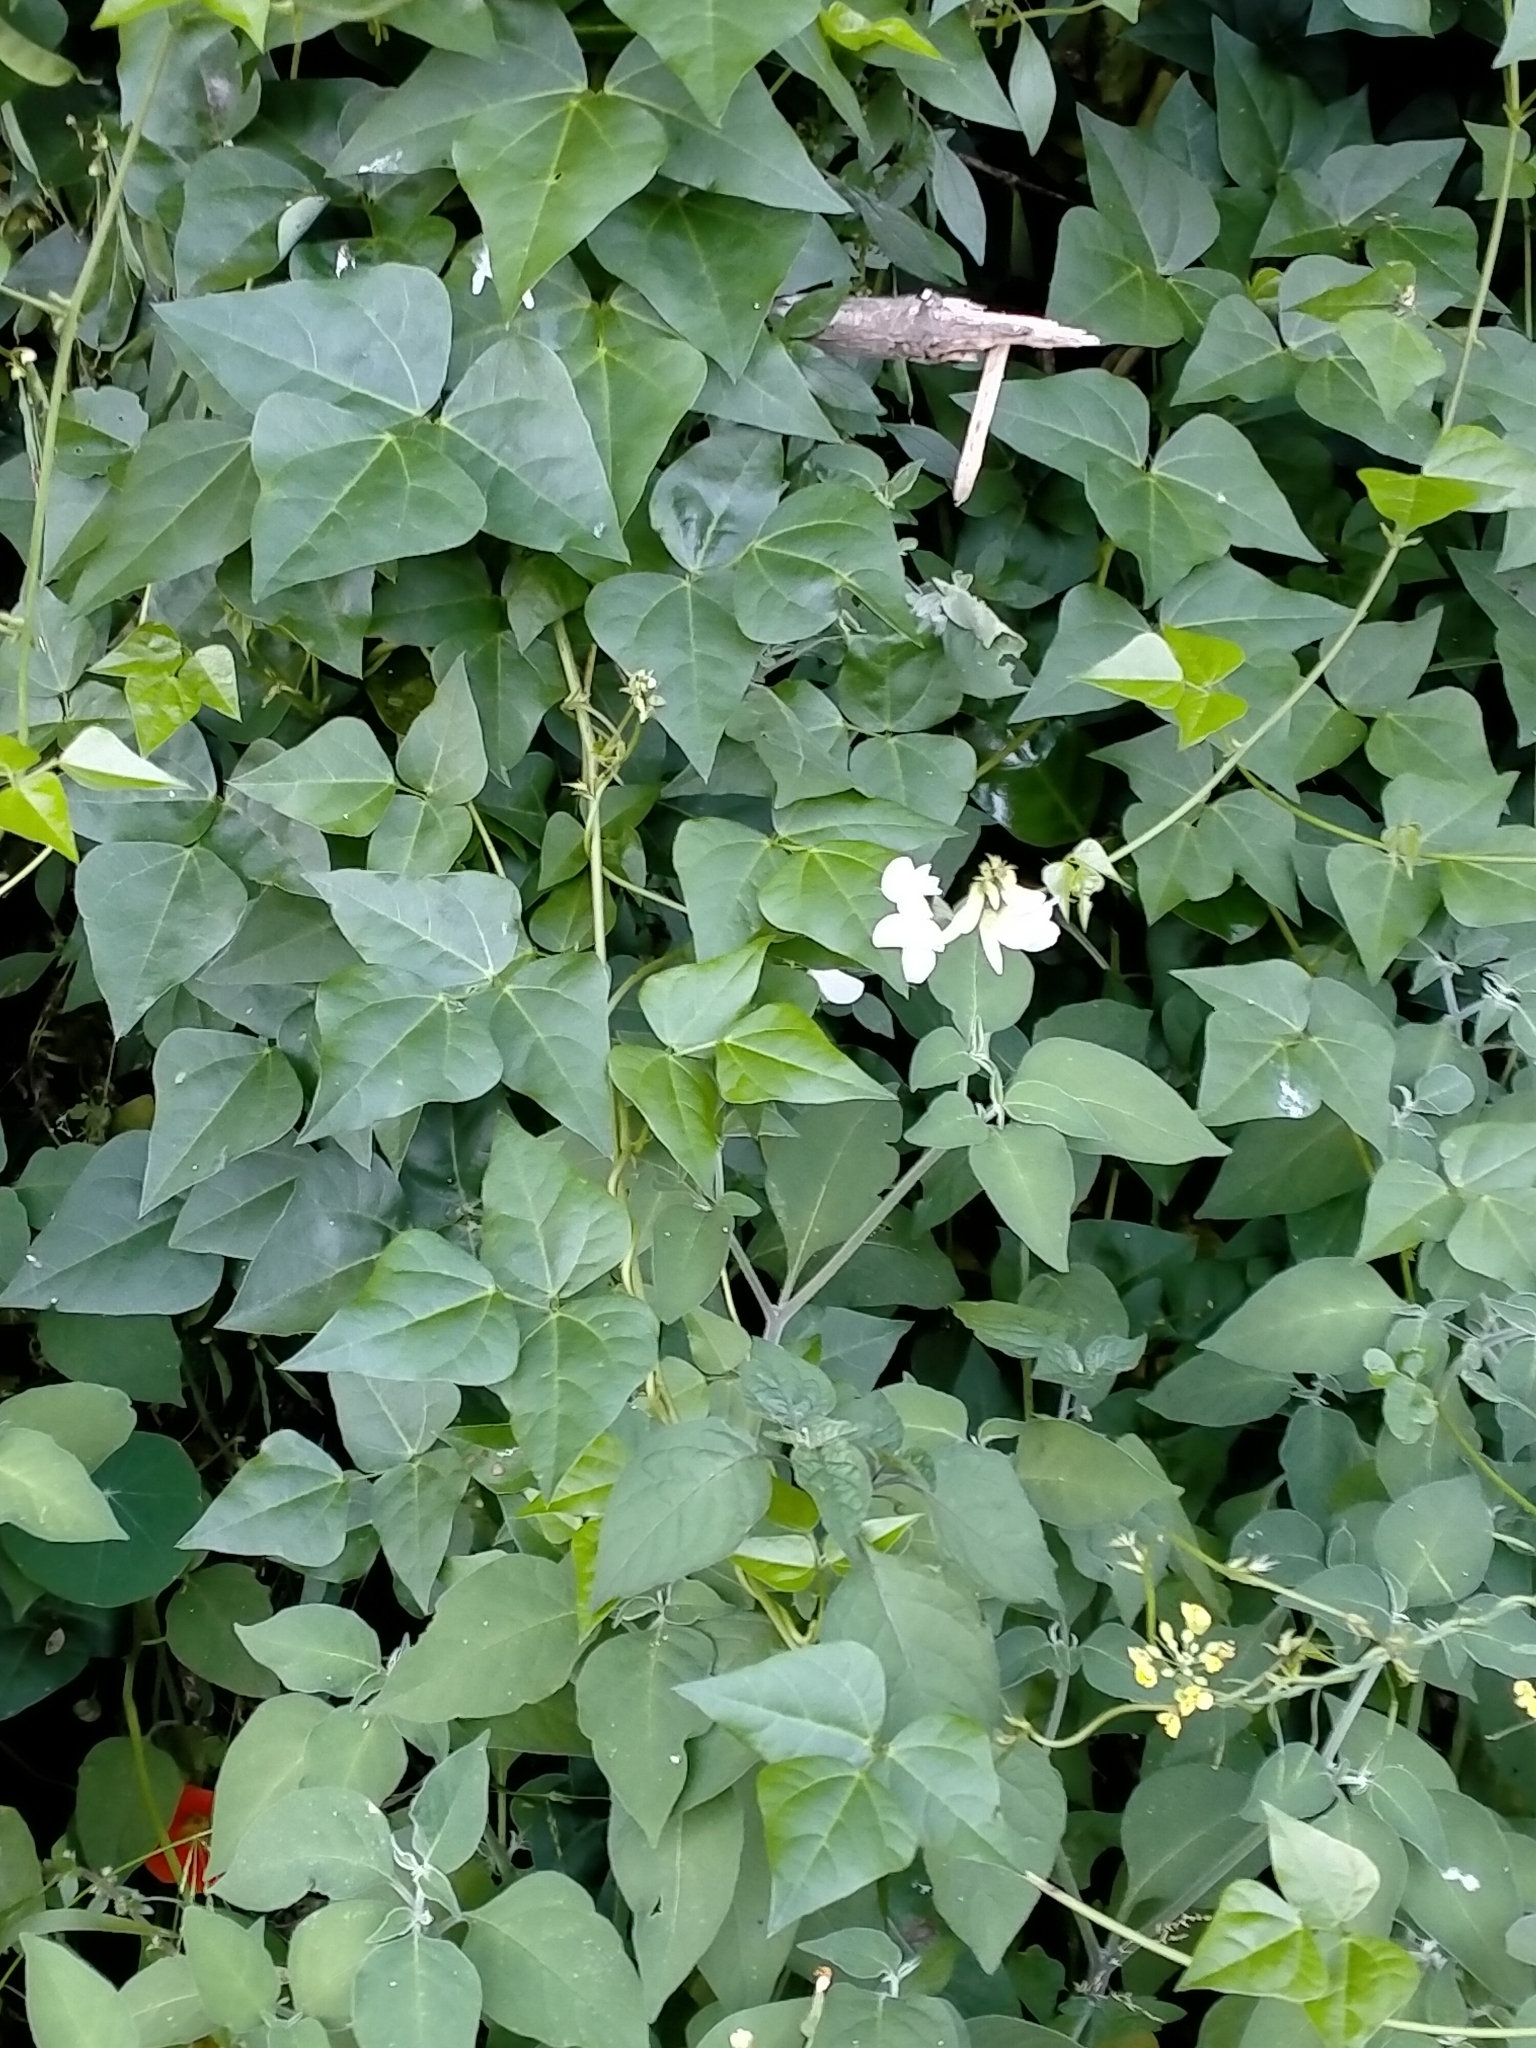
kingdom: Plantae
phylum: Tracheophyta
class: Magnoliopsida
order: Fabales
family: Fabaceae
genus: Dipogon
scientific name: Dipogon lignosus
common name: Okie bean
